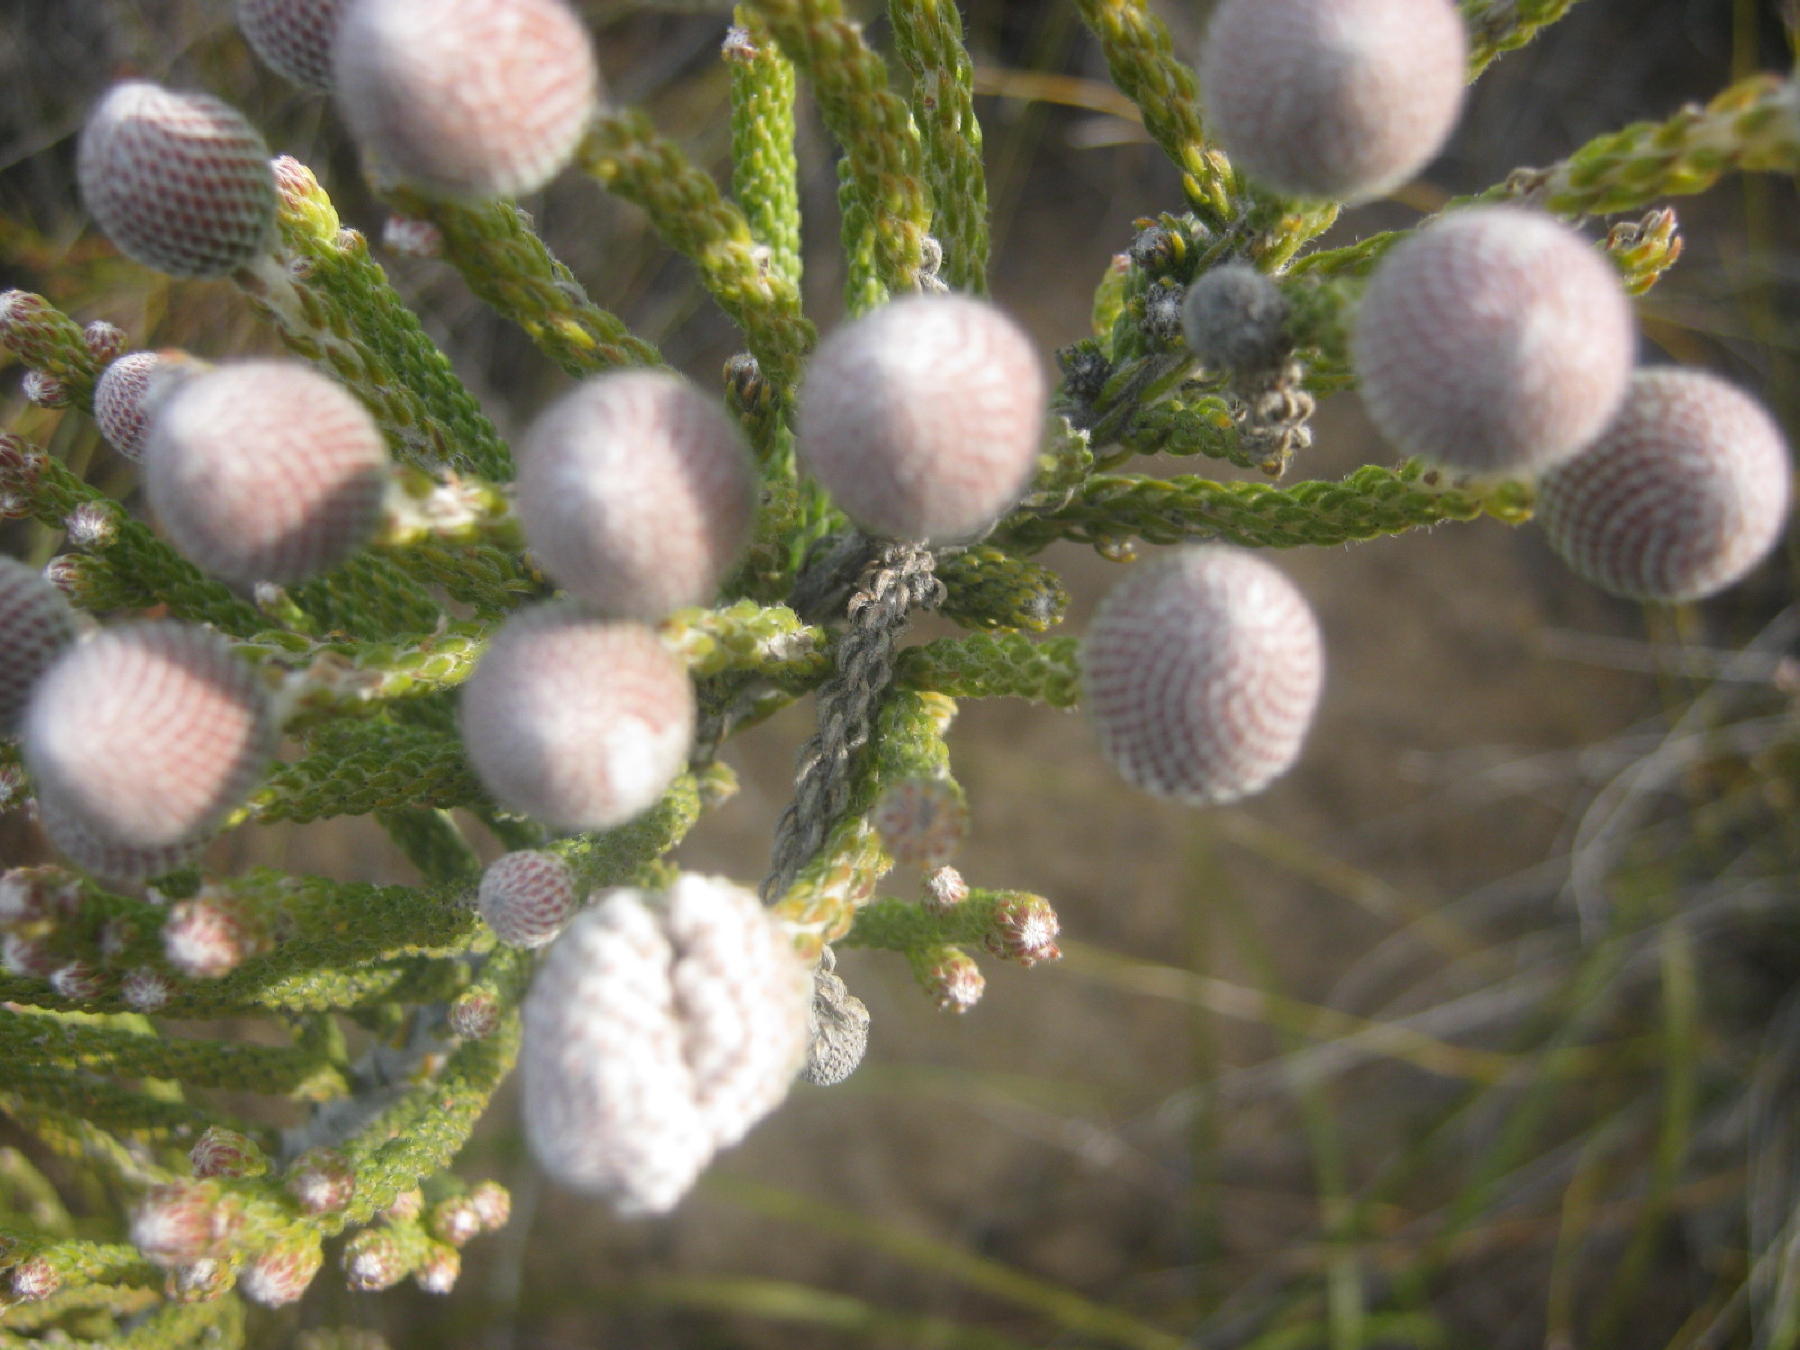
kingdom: Plantae
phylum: Tracheophyta
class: Magnoliopsida
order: Bruniales
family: Bruniaceae
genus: Brunia
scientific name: Brunia noduliflora
